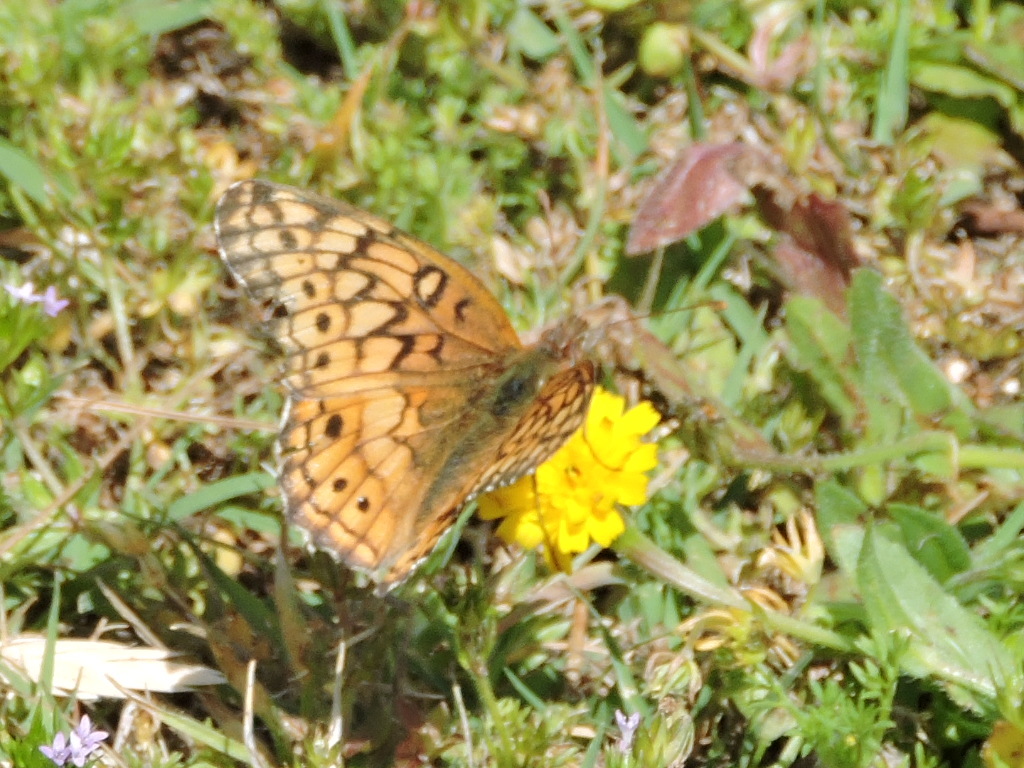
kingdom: Animalia
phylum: Arthropoda
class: Insecta
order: Lepidoptera
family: Nymphalidae
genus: Euptoieta
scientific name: Euptoieta claudia
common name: Variegated fritillary
